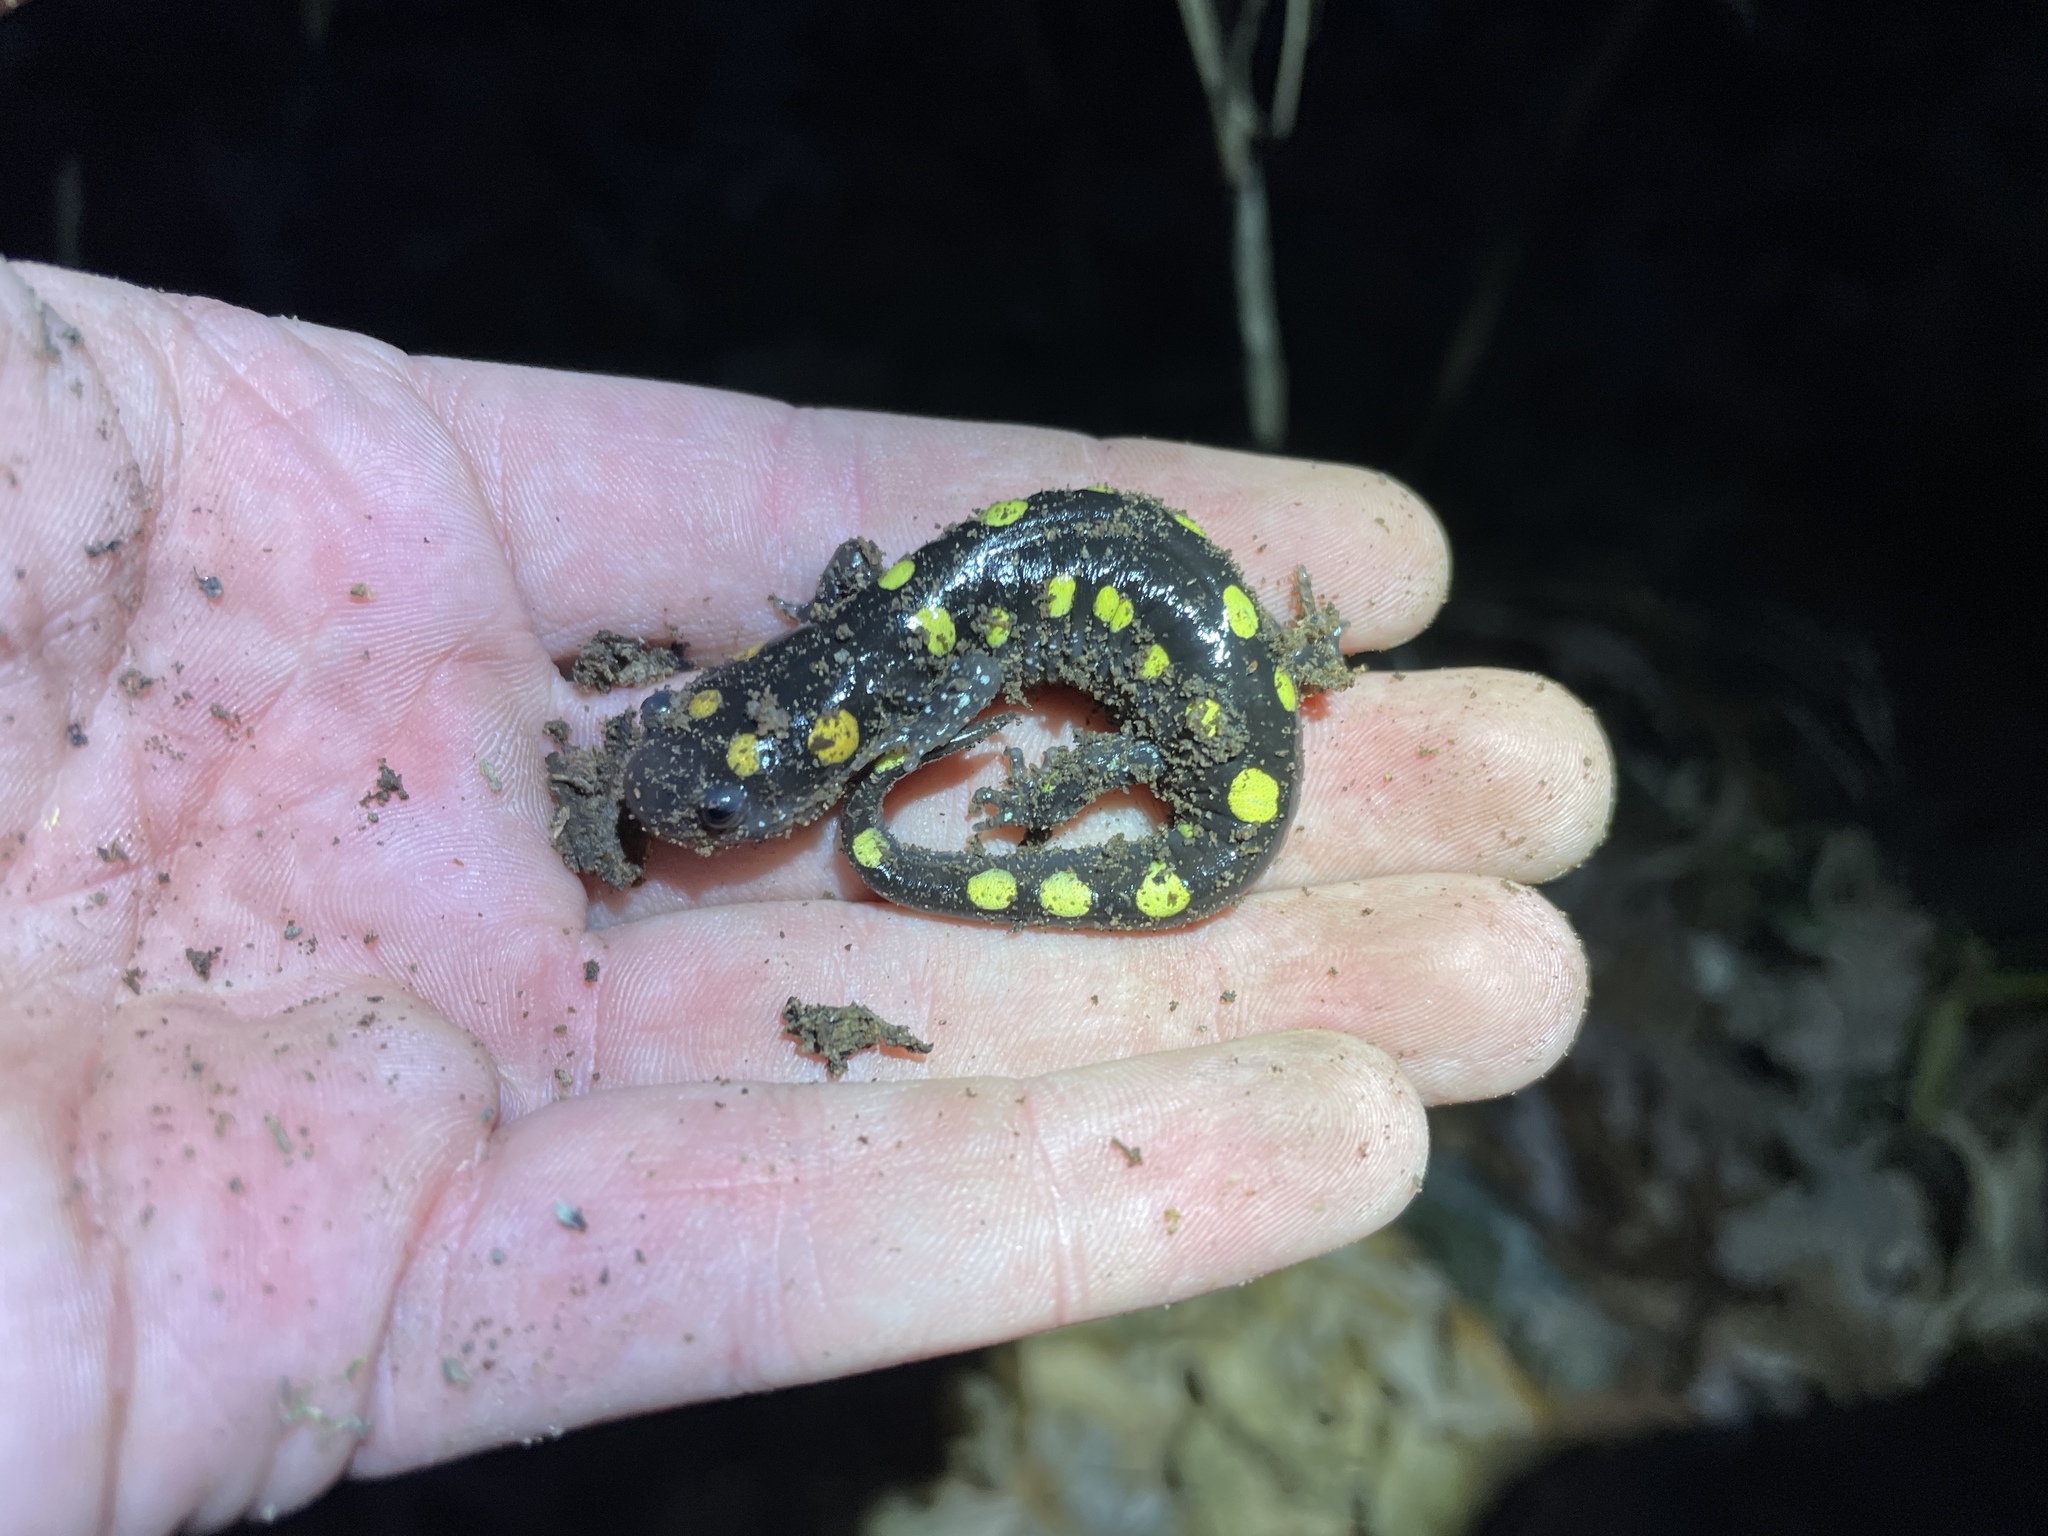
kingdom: Animalia
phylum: Chordata
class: Amphibia
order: Caudata
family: Ambystomatidae
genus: Ambystoma
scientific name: Ambystoma maculatum
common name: Spotted salamander
